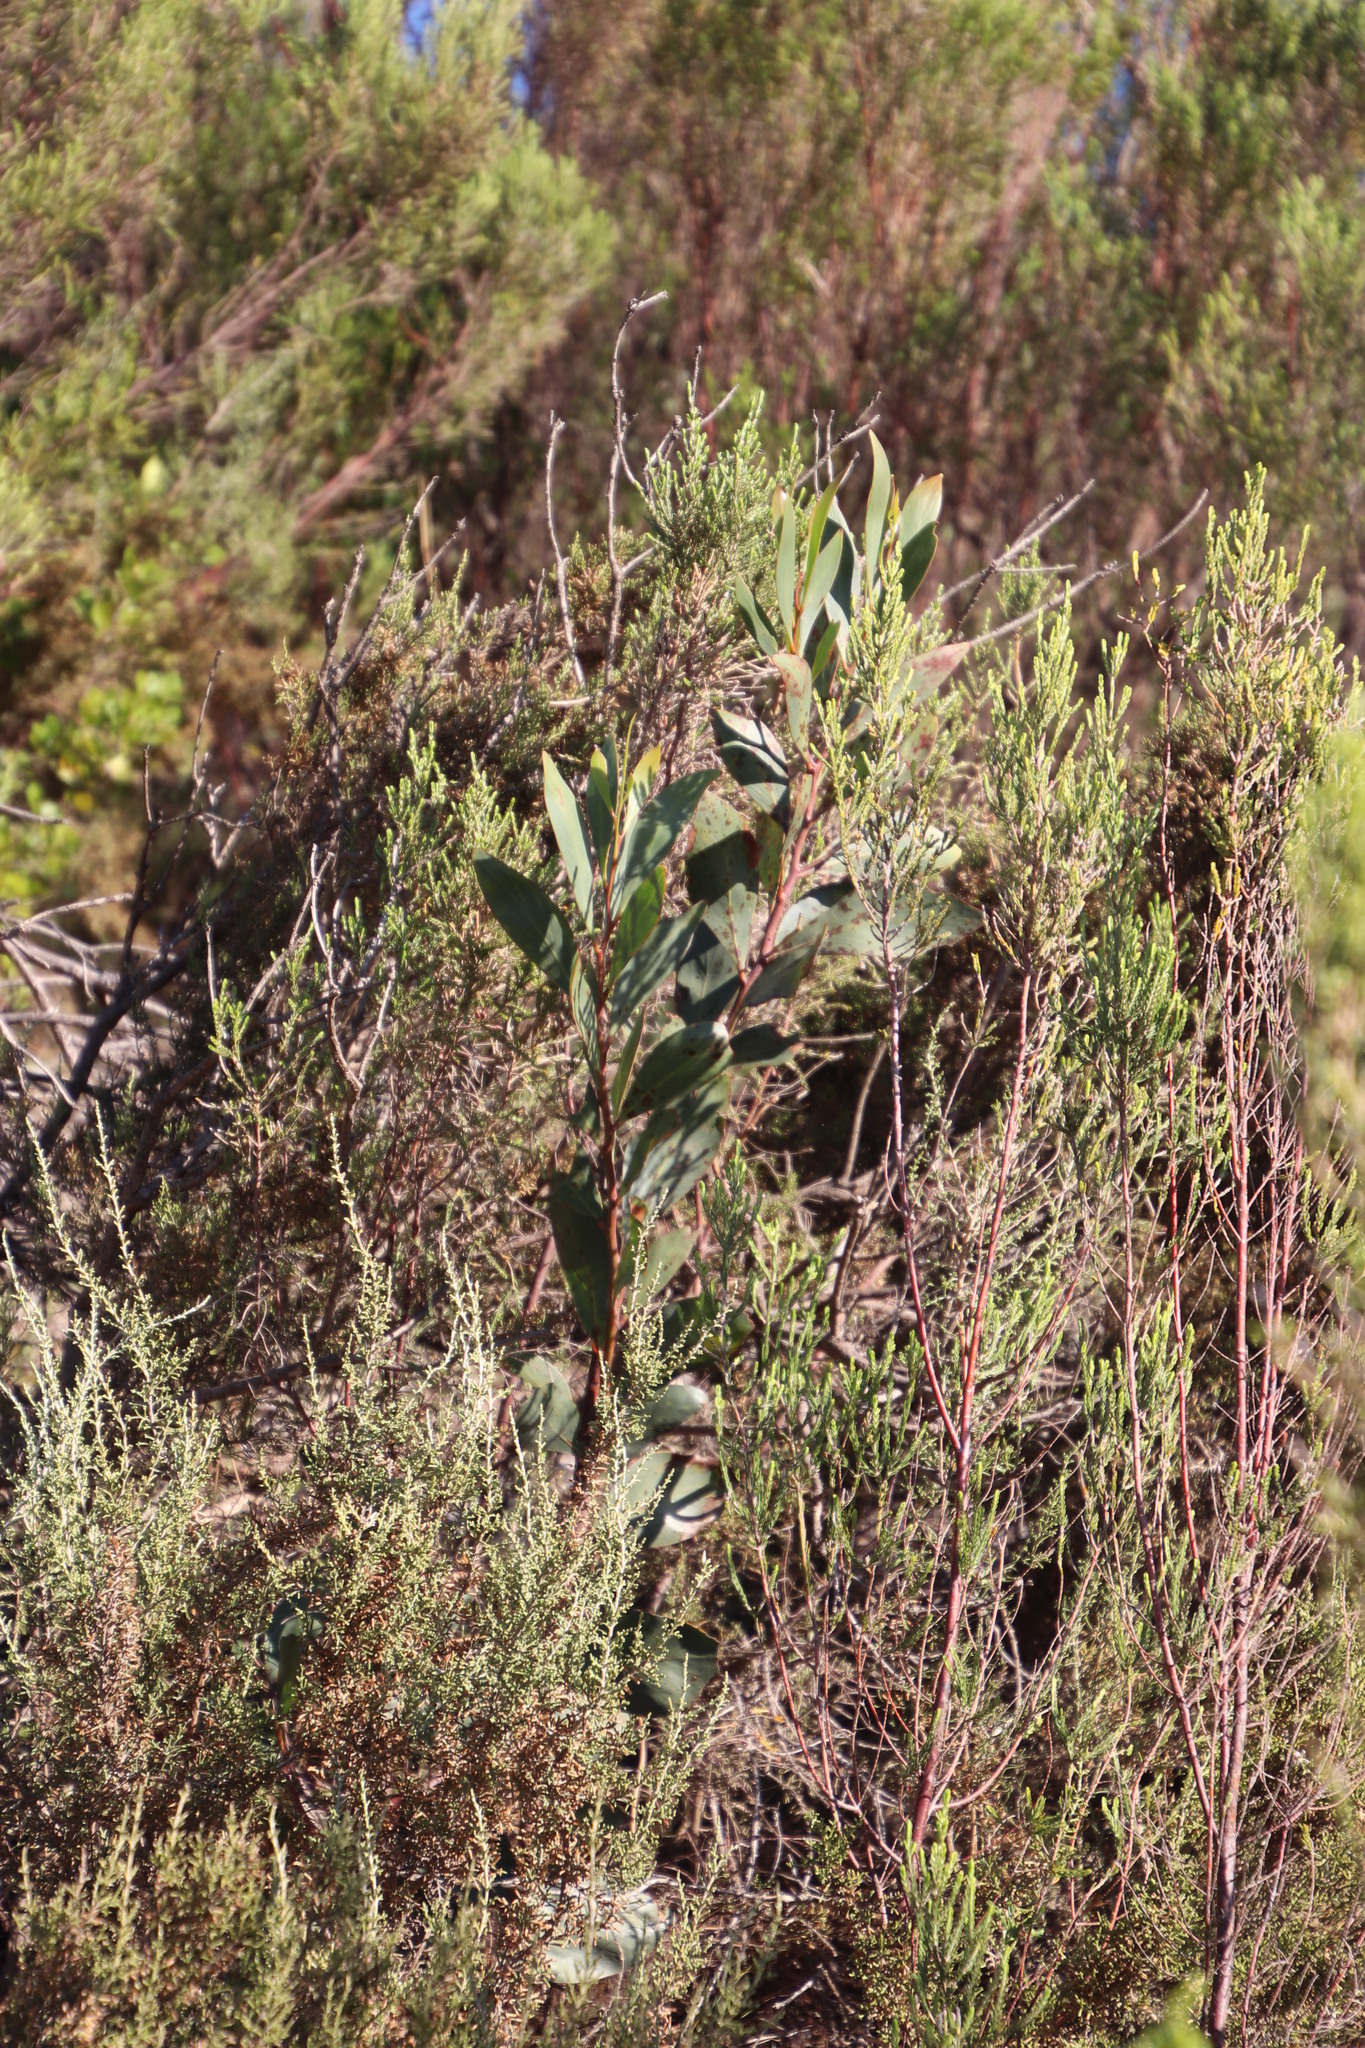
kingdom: Plantae
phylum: Tracheophyta
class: Magnoliopsida
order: Fabales
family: Fabaceae
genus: Acacia
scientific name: Acacia pycnantha
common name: Golden wattle
